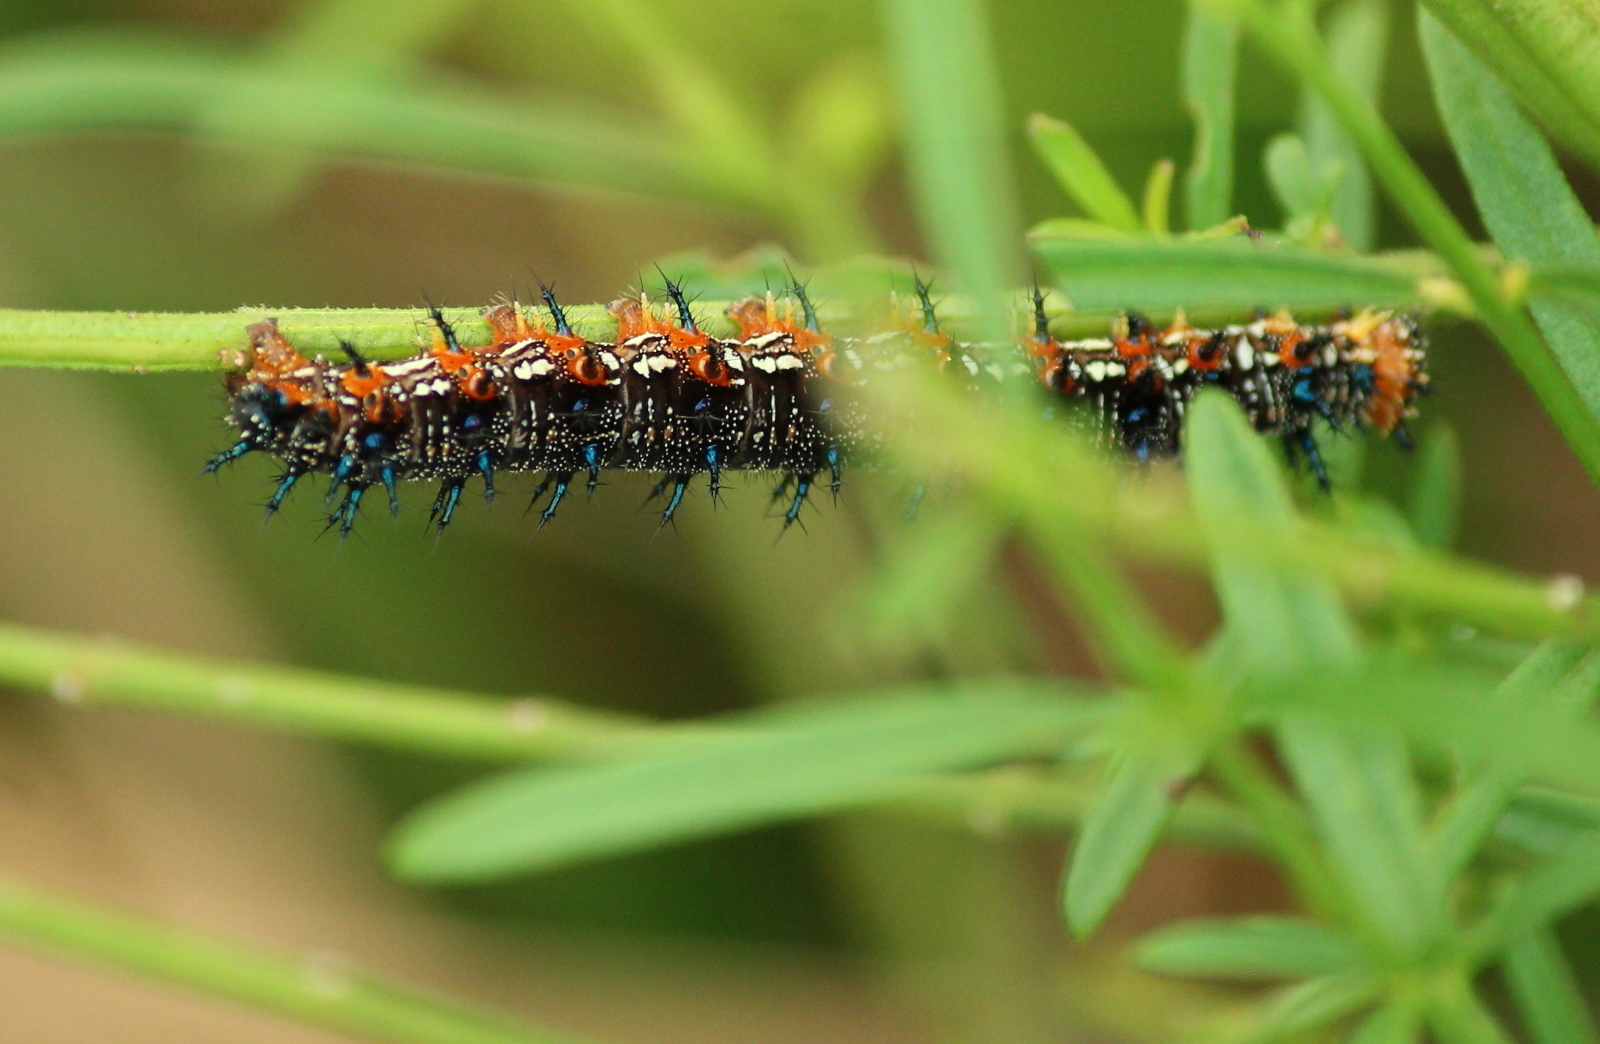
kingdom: Animalia
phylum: Arthropoda
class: Insecta
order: Lepidoptera
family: Nymphalidae
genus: Junonia
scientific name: Junonia coenia
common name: Common buckeye
